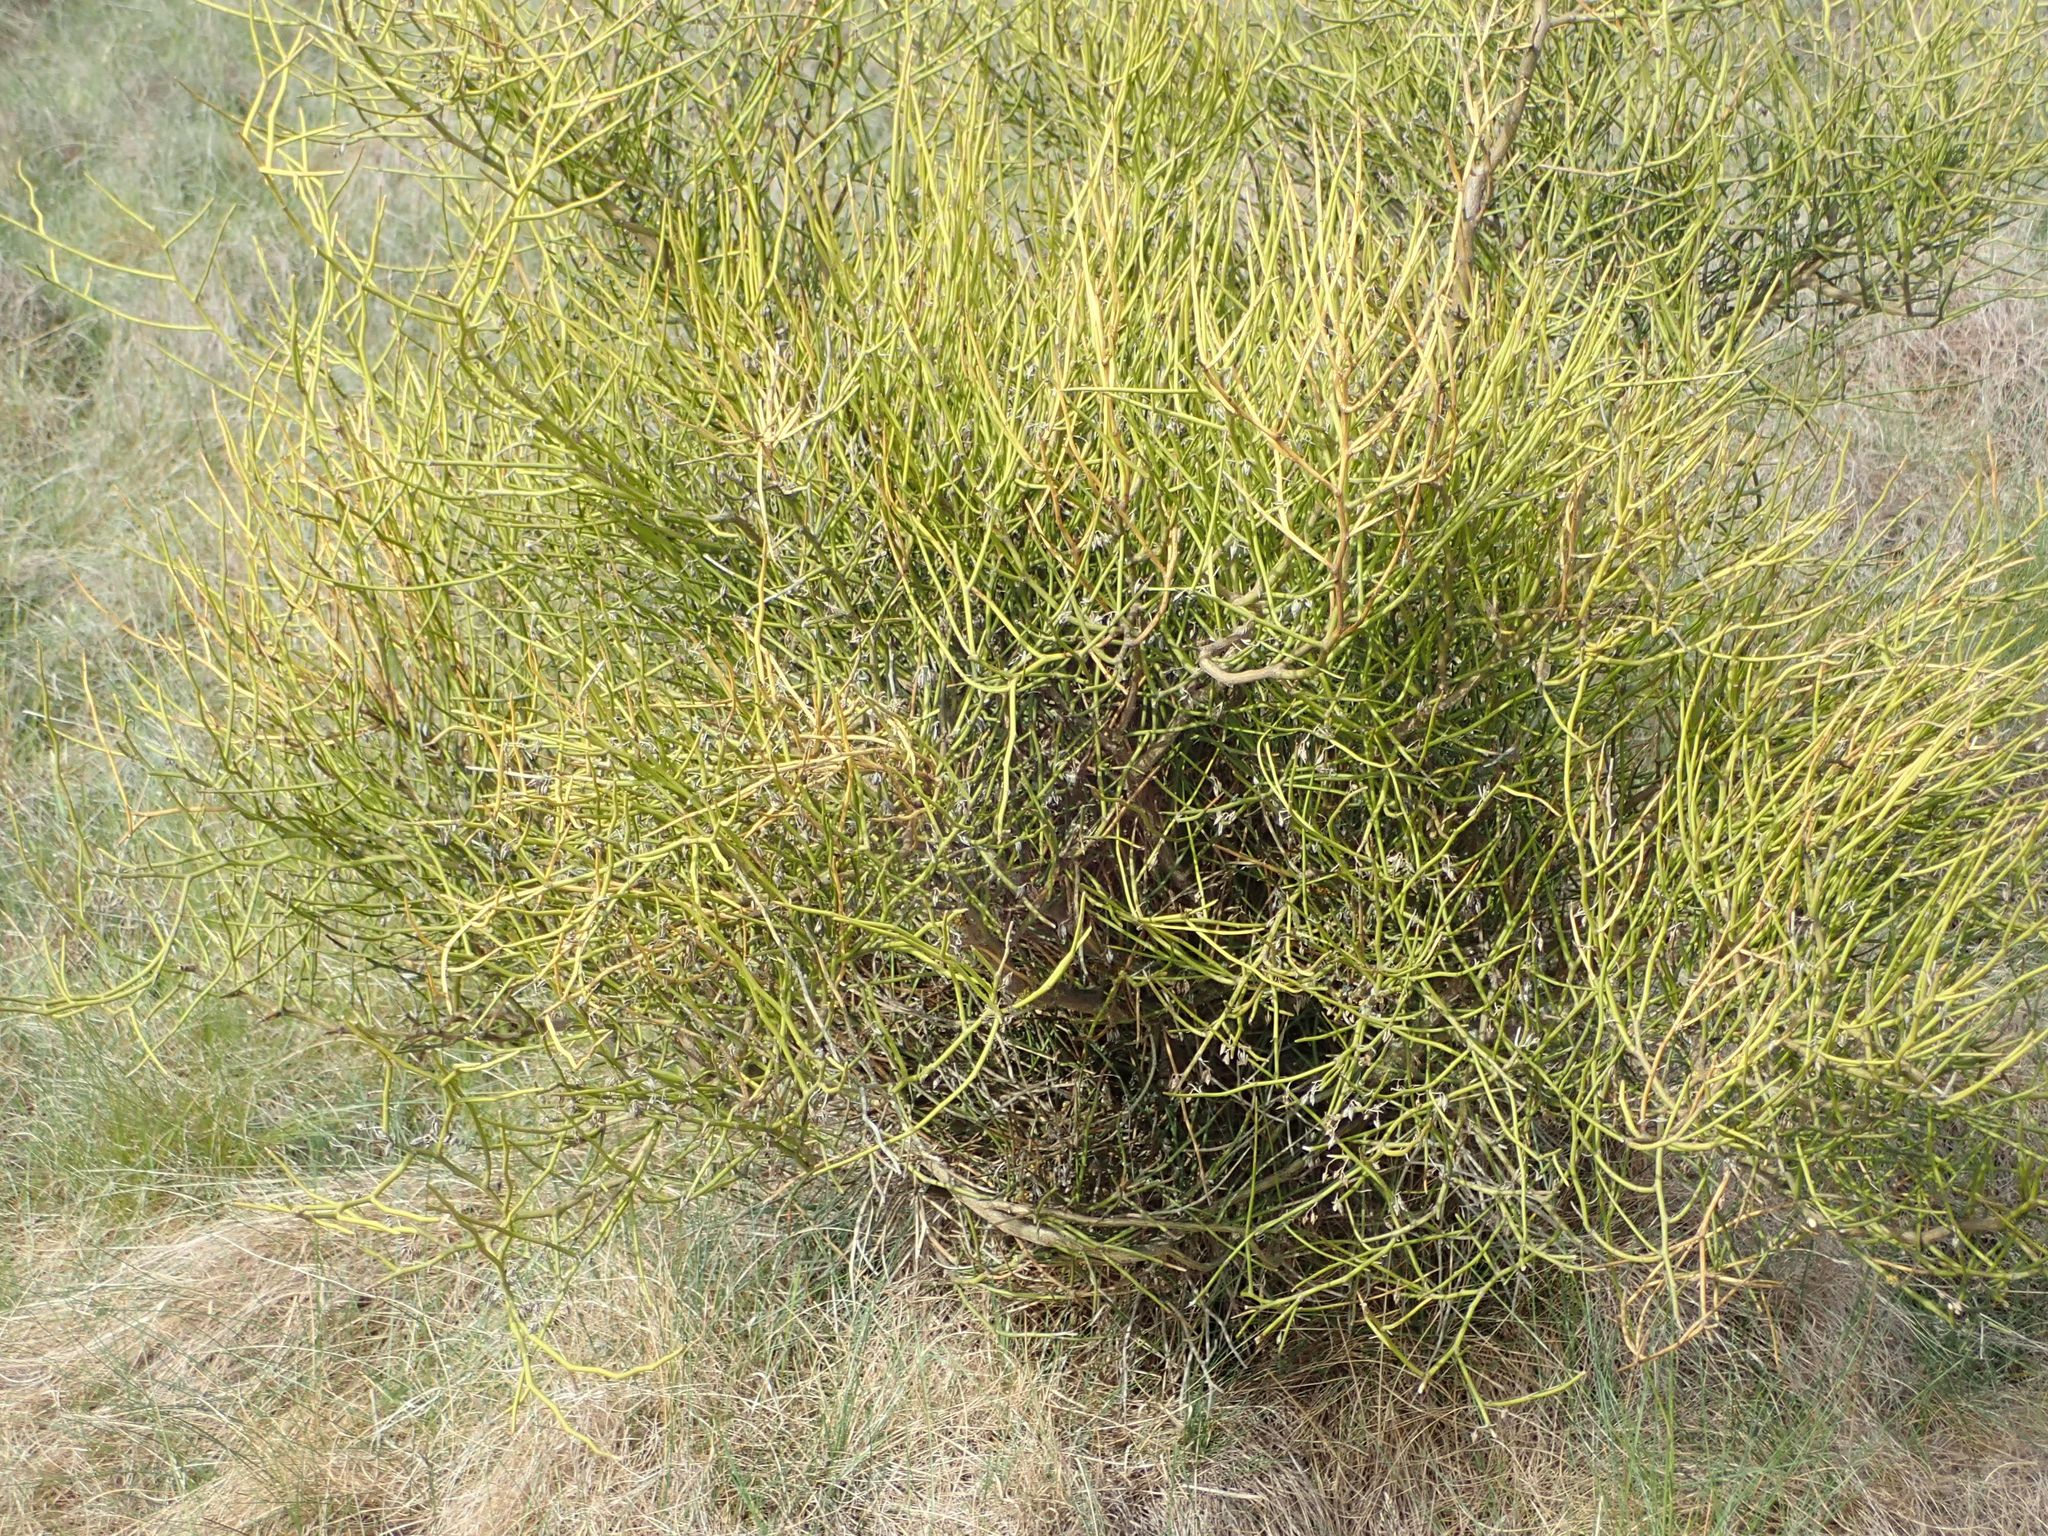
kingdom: Plantae
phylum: Tracheophyta
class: Magnoliopsida
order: Fabales
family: Fabaceae
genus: Carmichaelia
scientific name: Carmichaelia petriei
